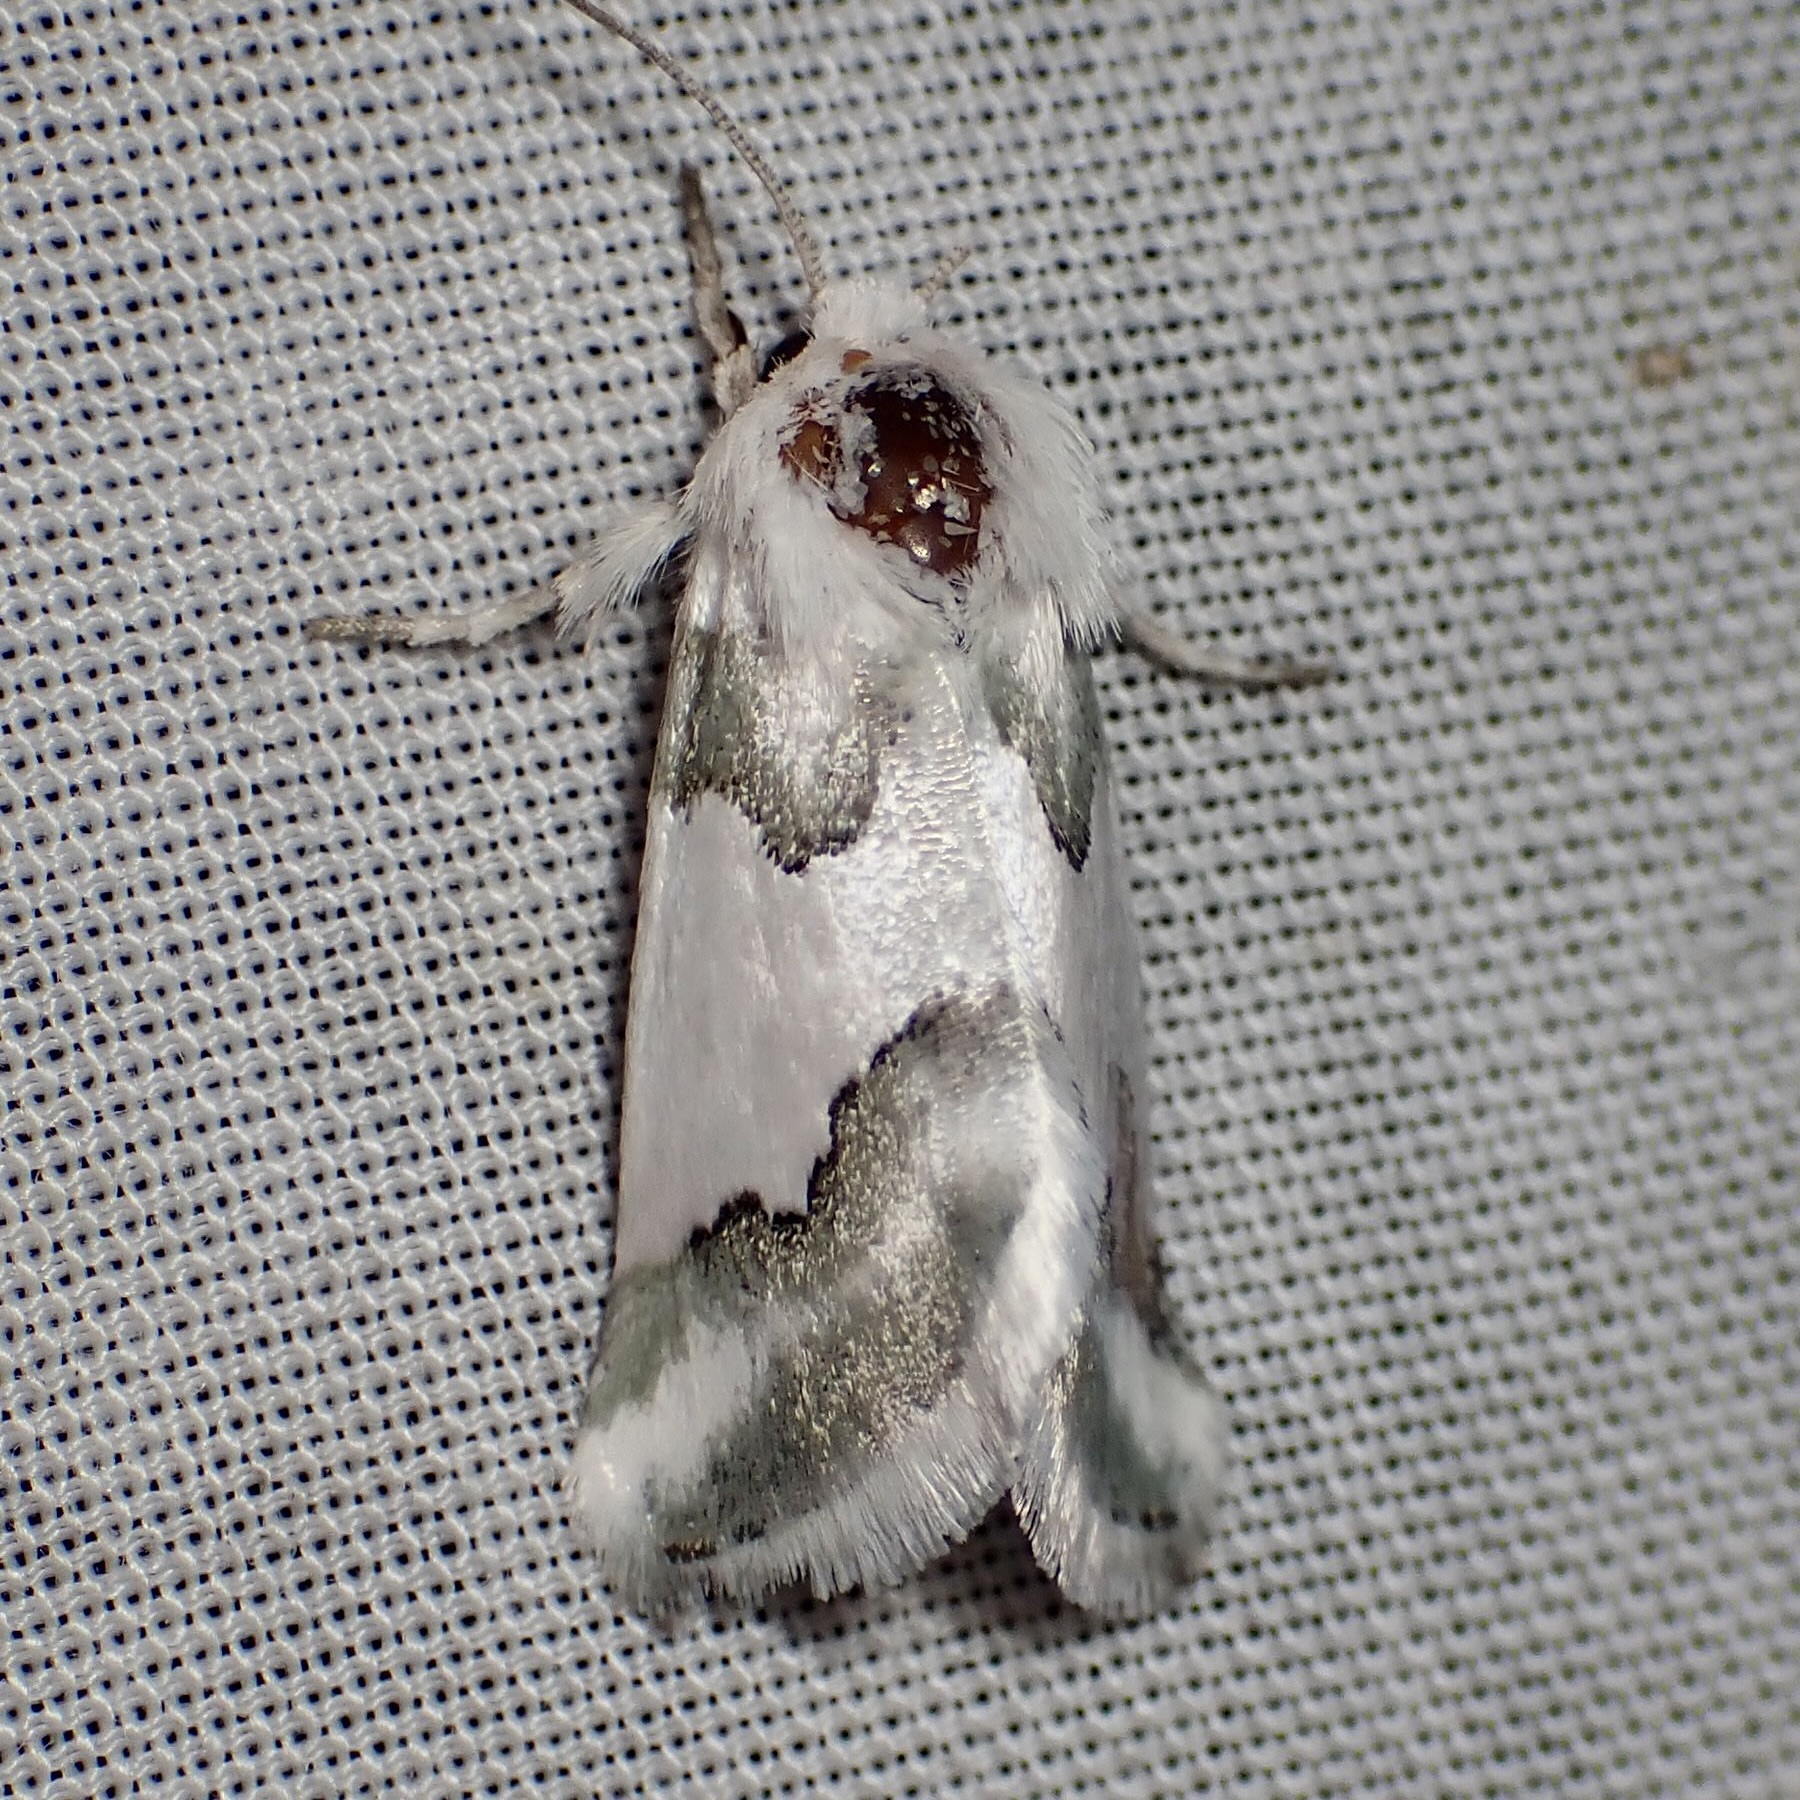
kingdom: Animalia
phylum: Arthropoda
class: Insecta
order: Lepidoptera
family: Noctuidae
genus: Schinia
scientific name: Schinia hulstia
